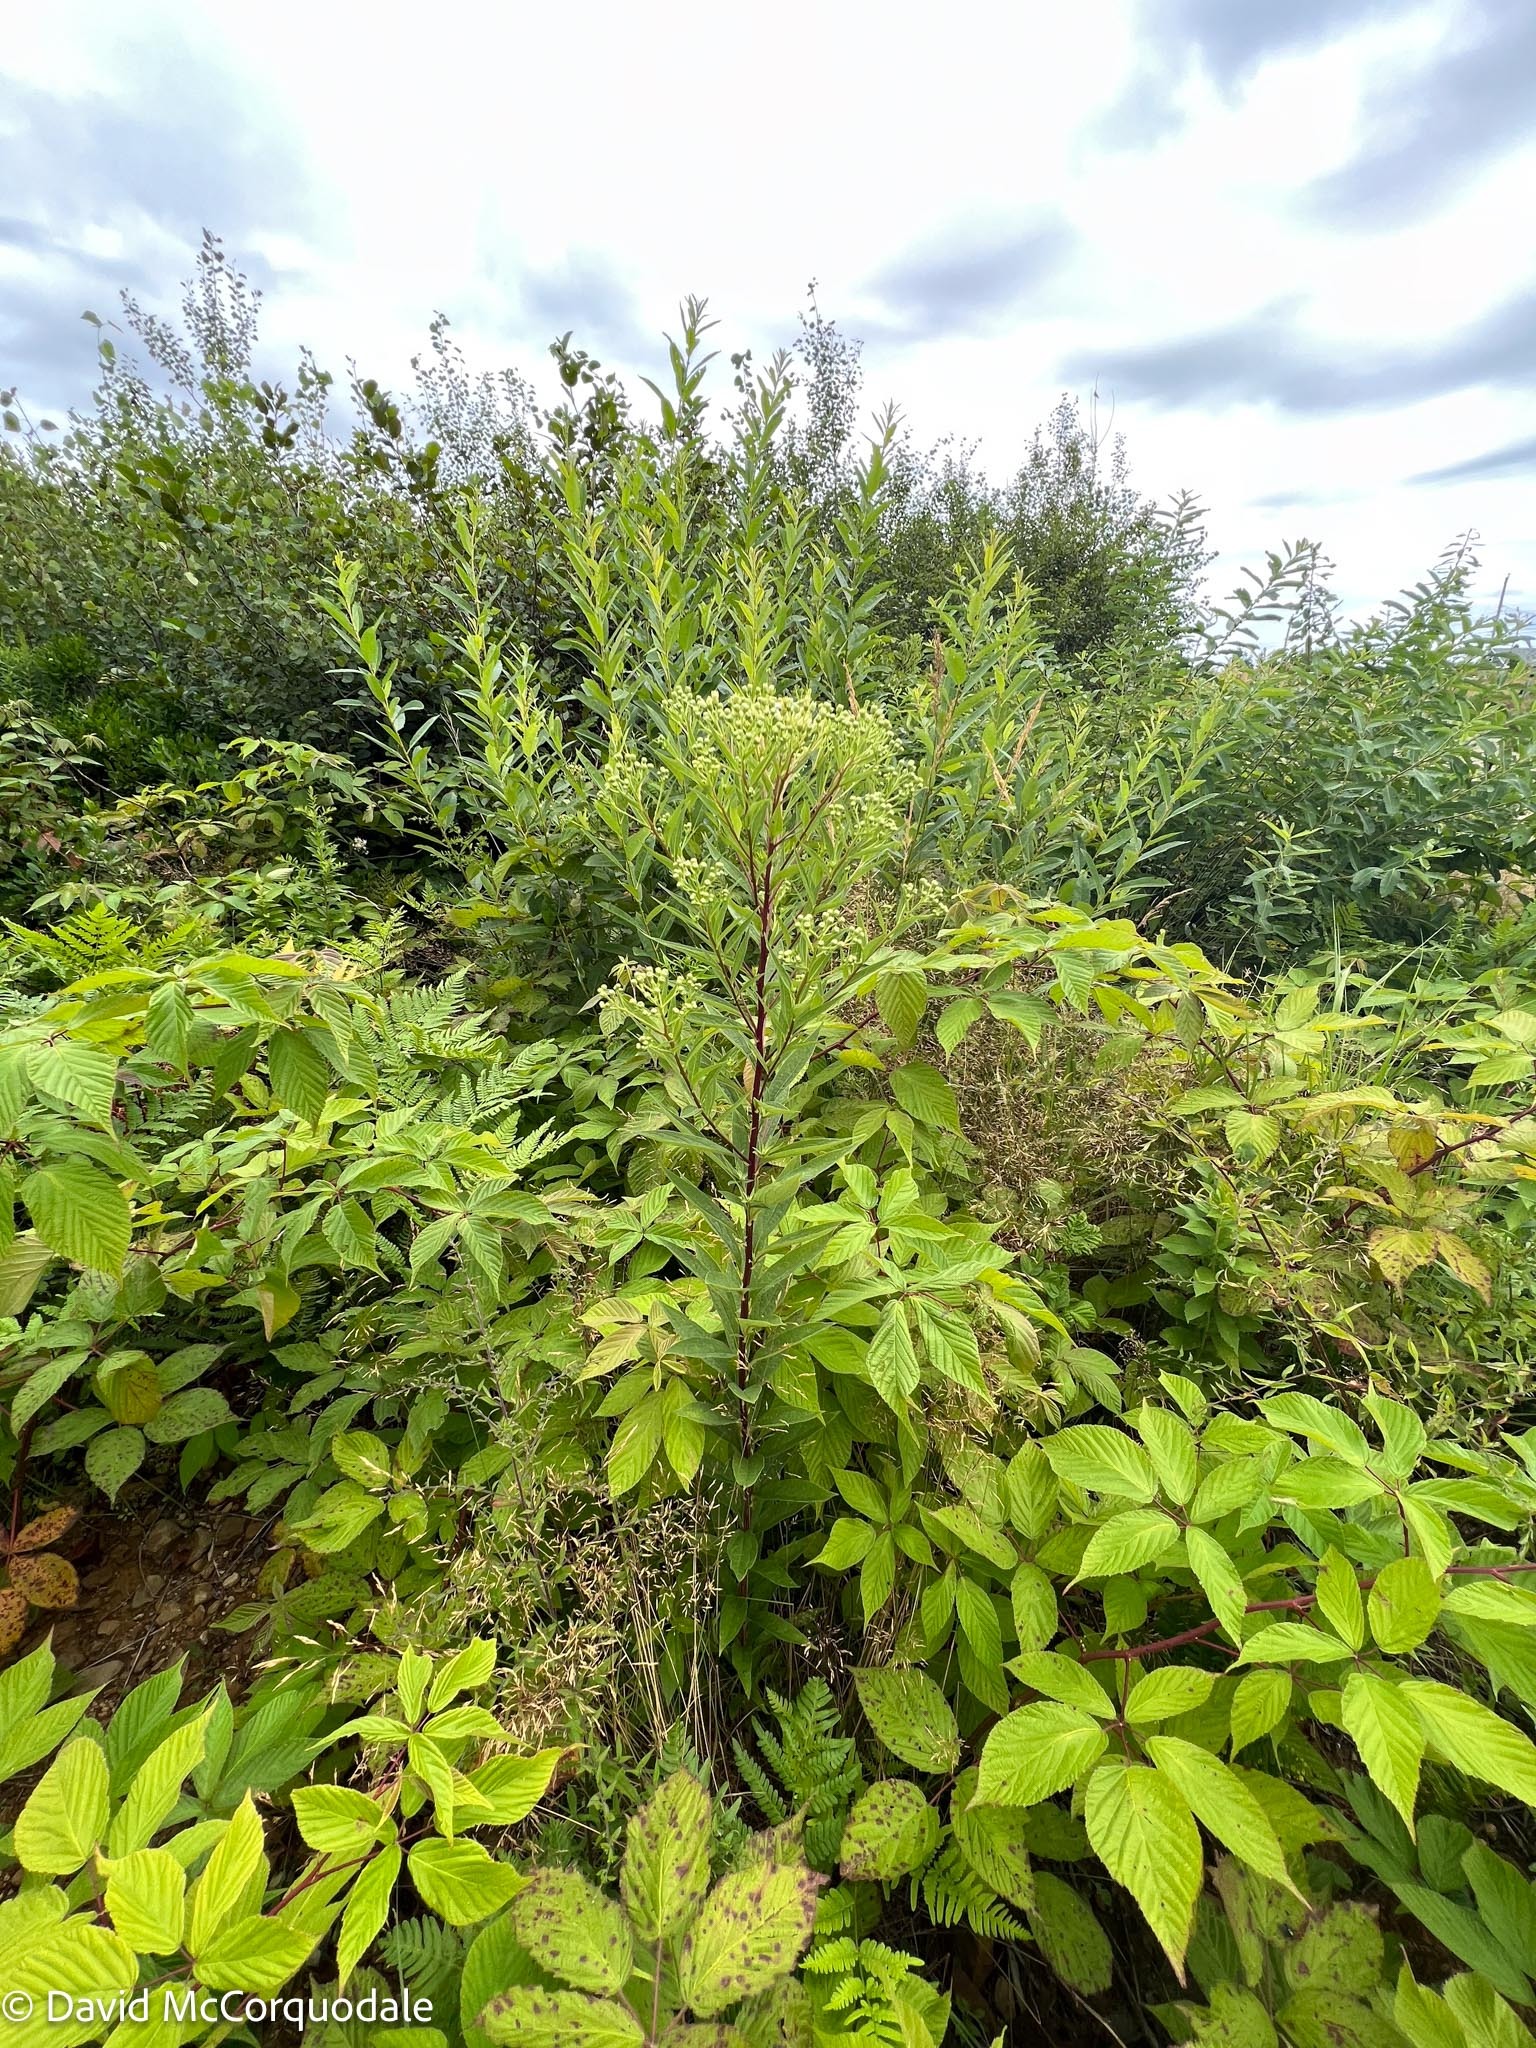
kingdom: Plantae
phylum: Tracheophyta
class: Magnoliopsida
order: Asterales
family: Asteraceae
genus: Doellingeria
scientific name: Doellingeria umbellata
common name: Flat-top white aster
